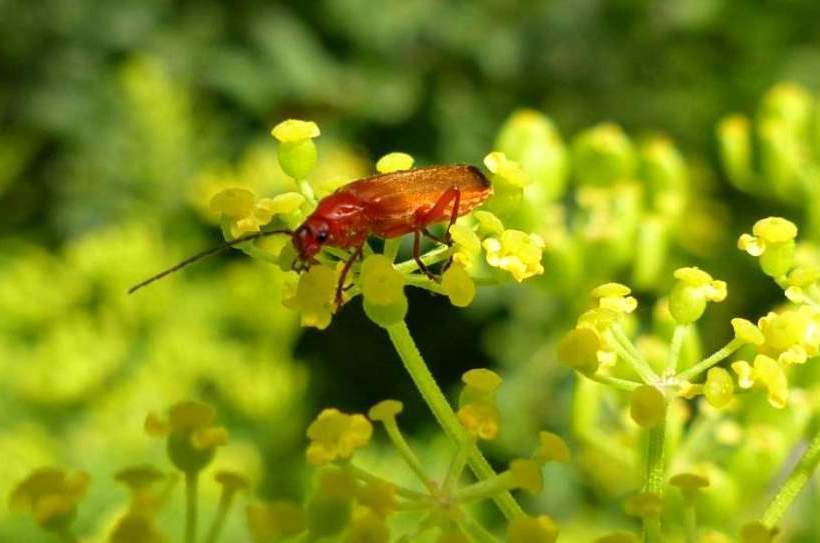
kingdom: Animalia
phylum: Arthropoda
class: Insecta
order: Coleoptera
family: Cantharidae
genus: Rhagonycha
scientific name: Rhagonycha fulva
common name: Common red soldier beetle
